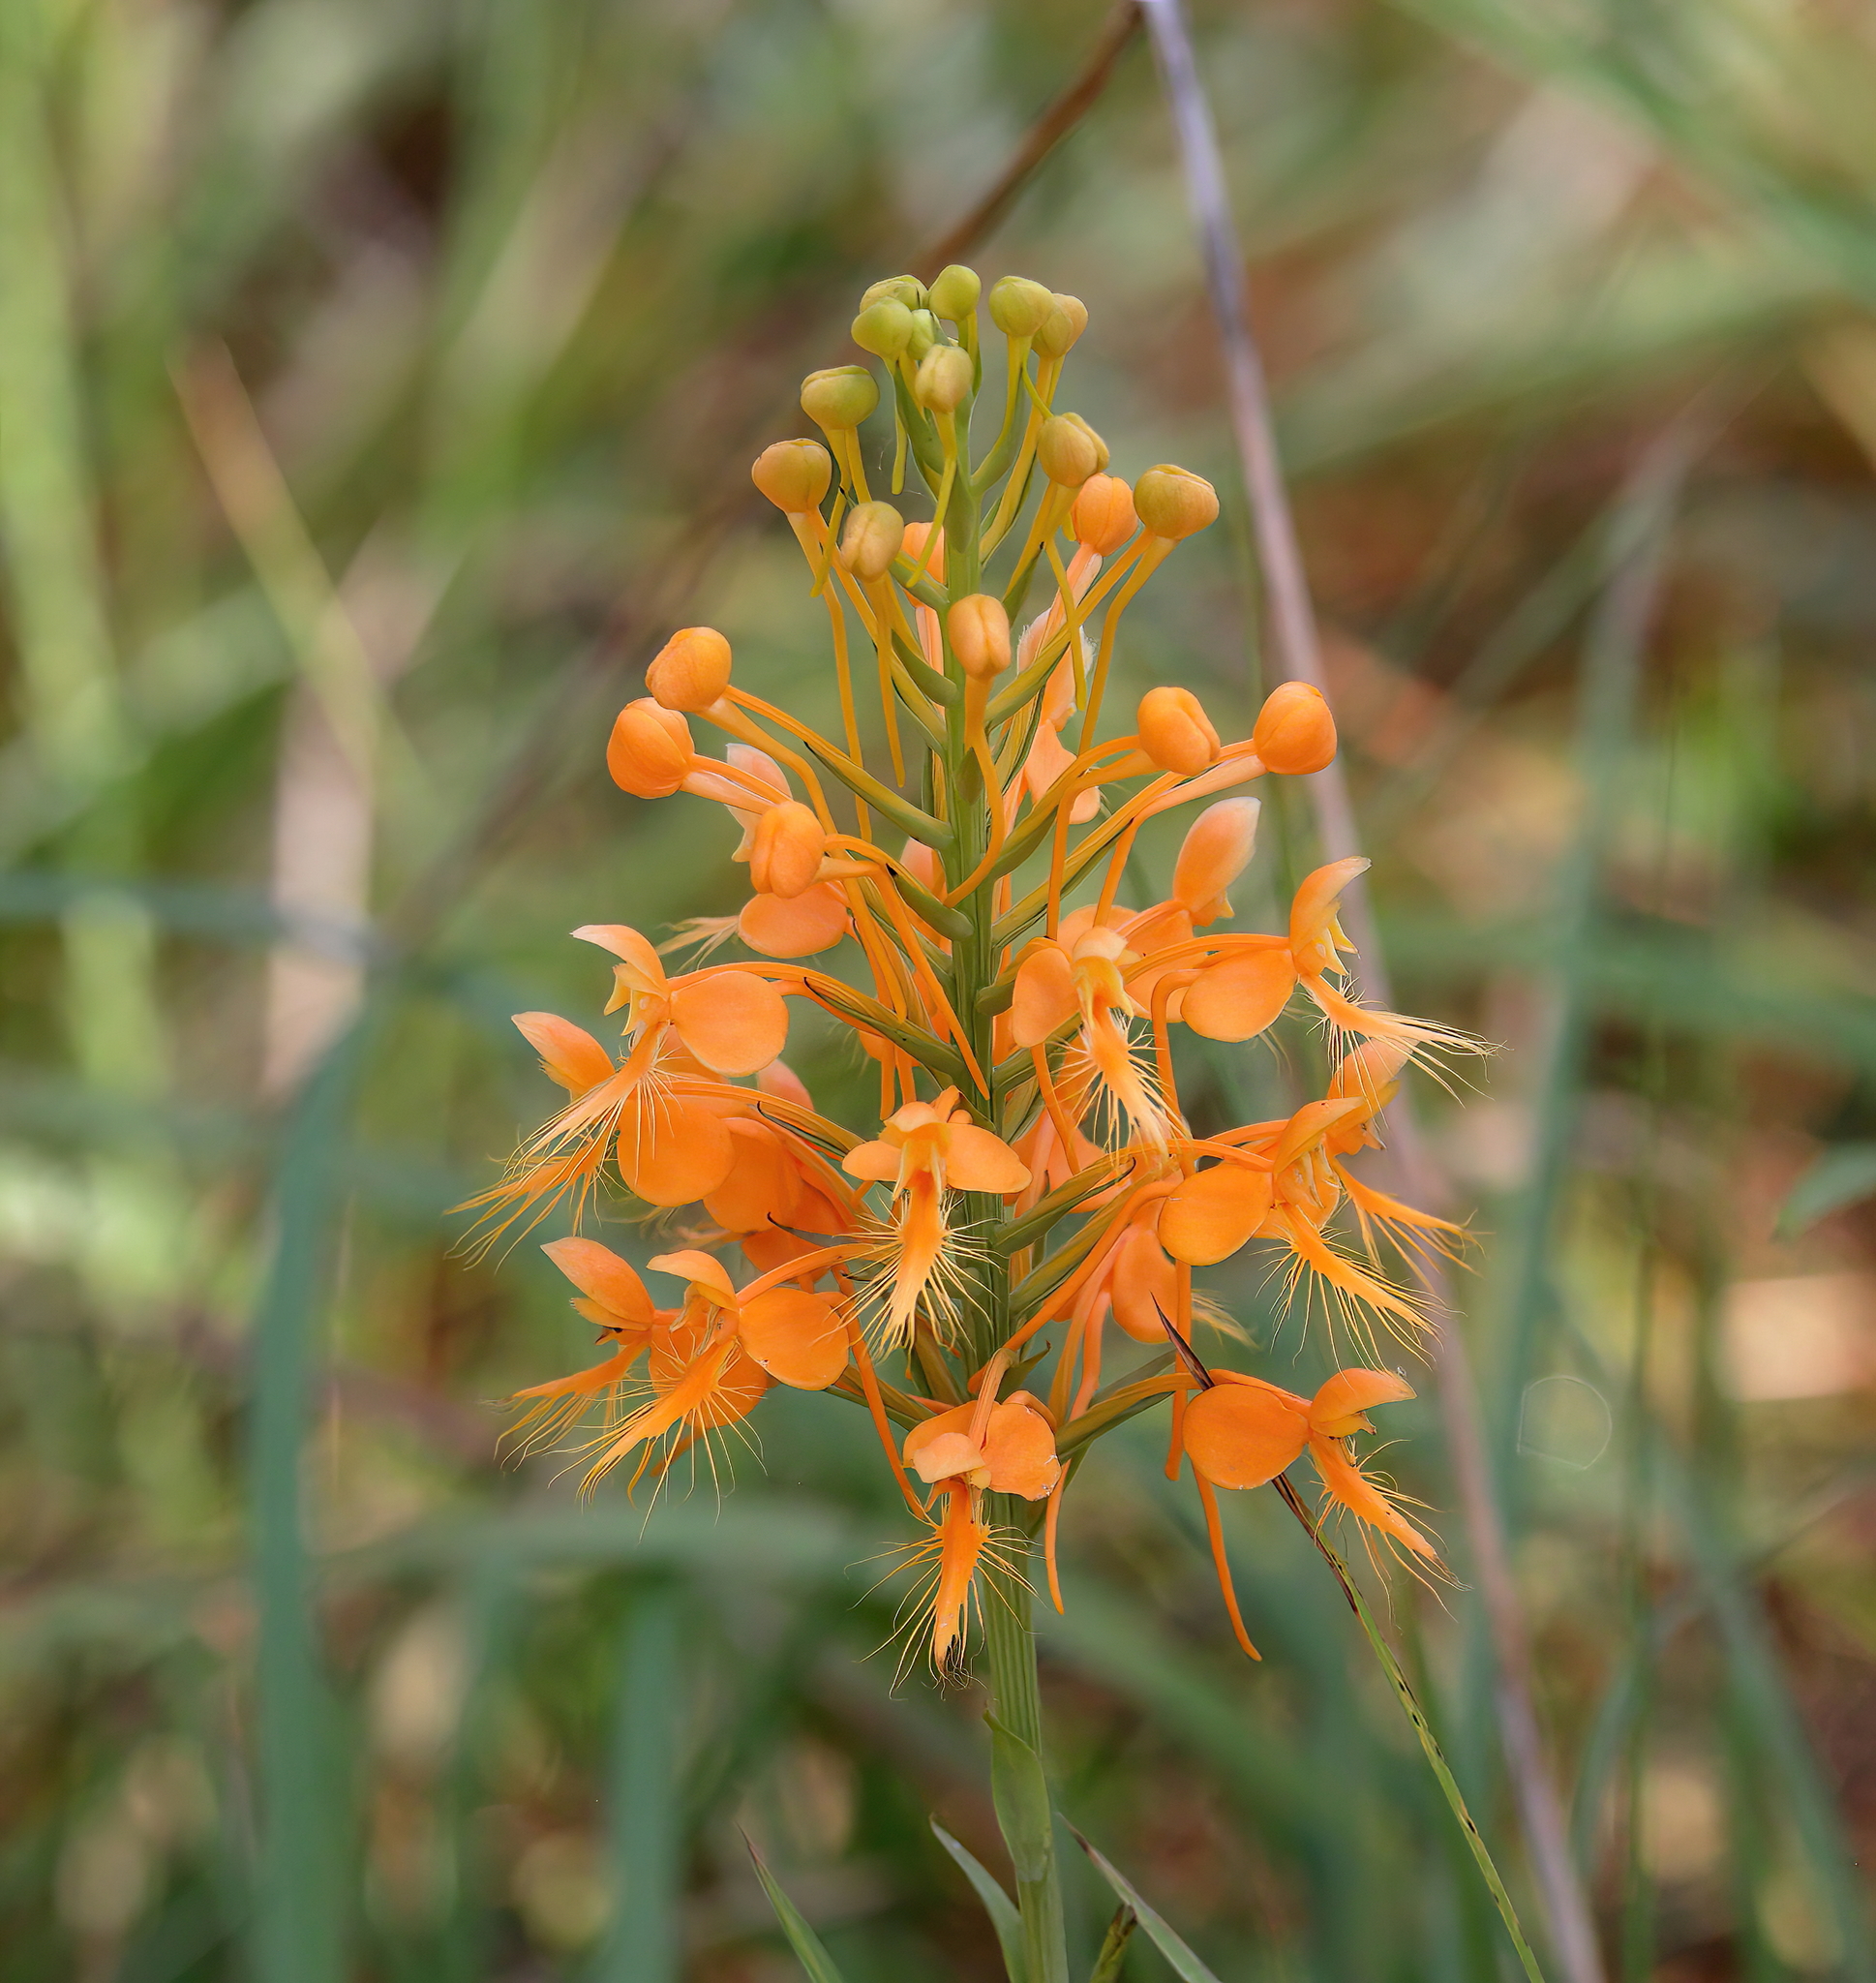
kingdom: Plantae
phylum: Tracheophyta
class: Liliopsida
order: Asparagales
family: Orchidaceae
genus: Platanthera
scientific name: Platanthera ciliaris
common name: Yellow fringed orchid
